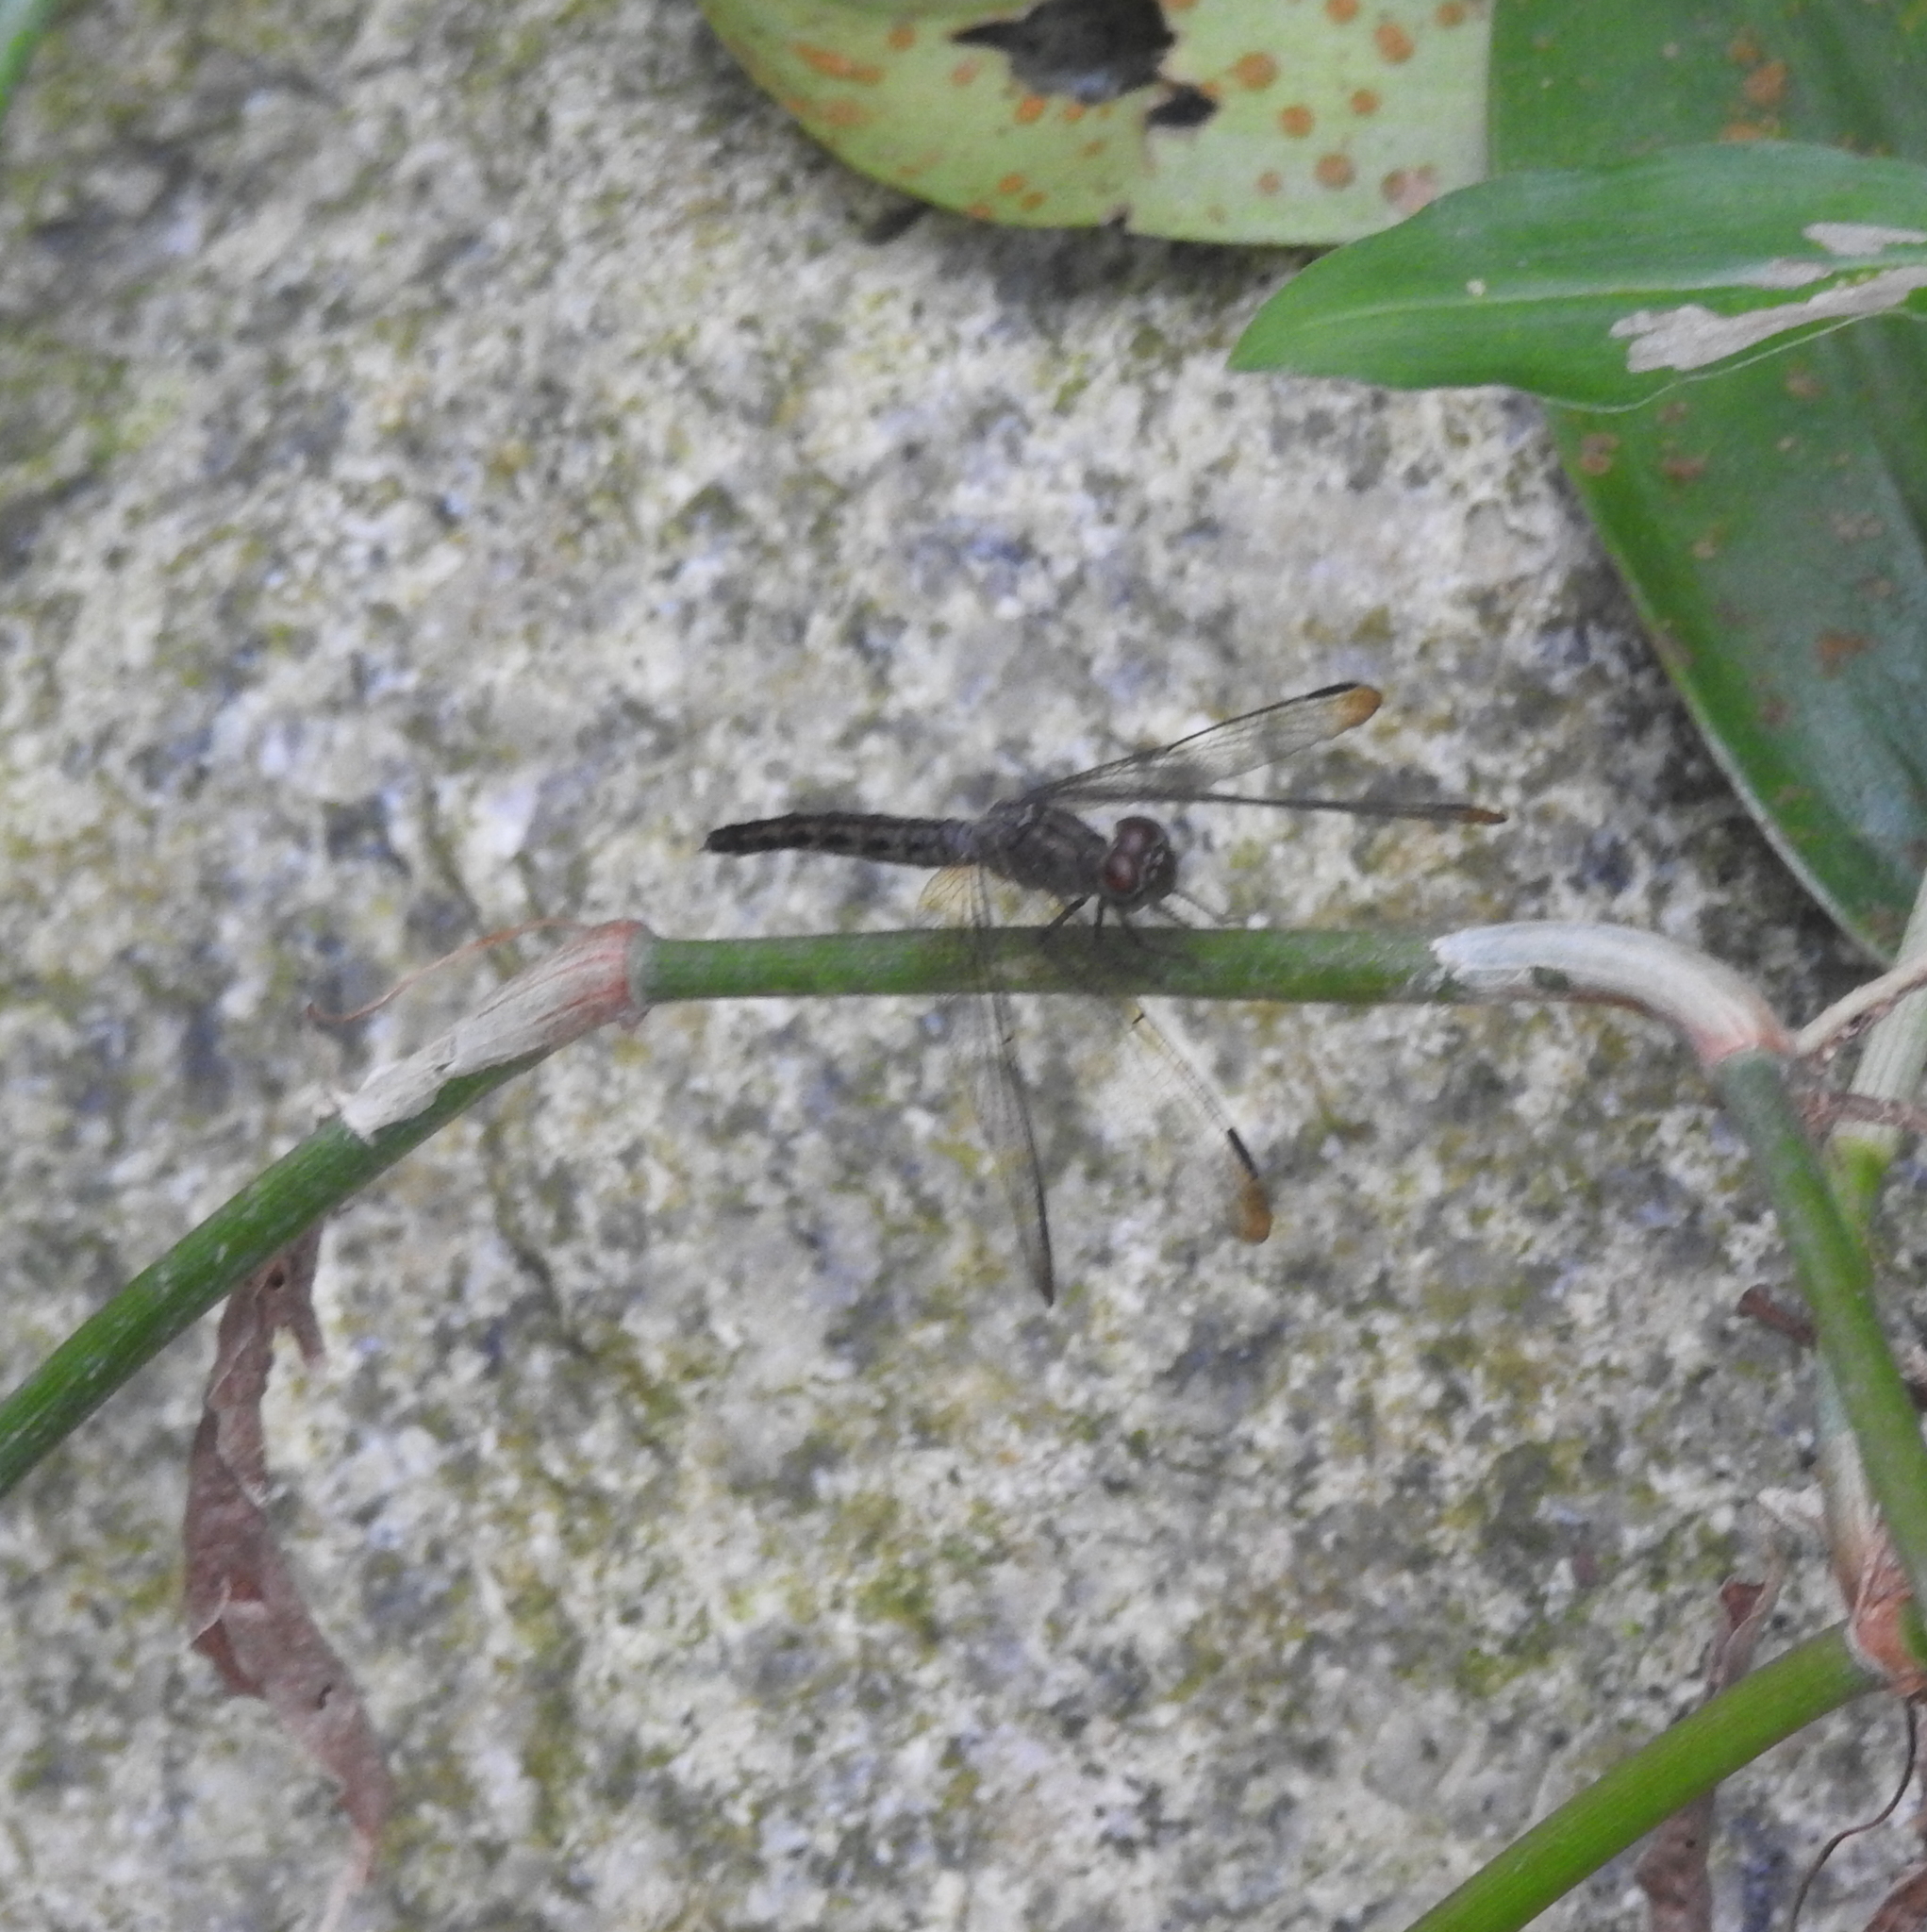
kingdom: Animalia
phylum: Arthropoda
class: Insecta
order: Odonata
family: Libellulidae
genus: Neurothemis
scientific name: Neurothemis fluctuans
